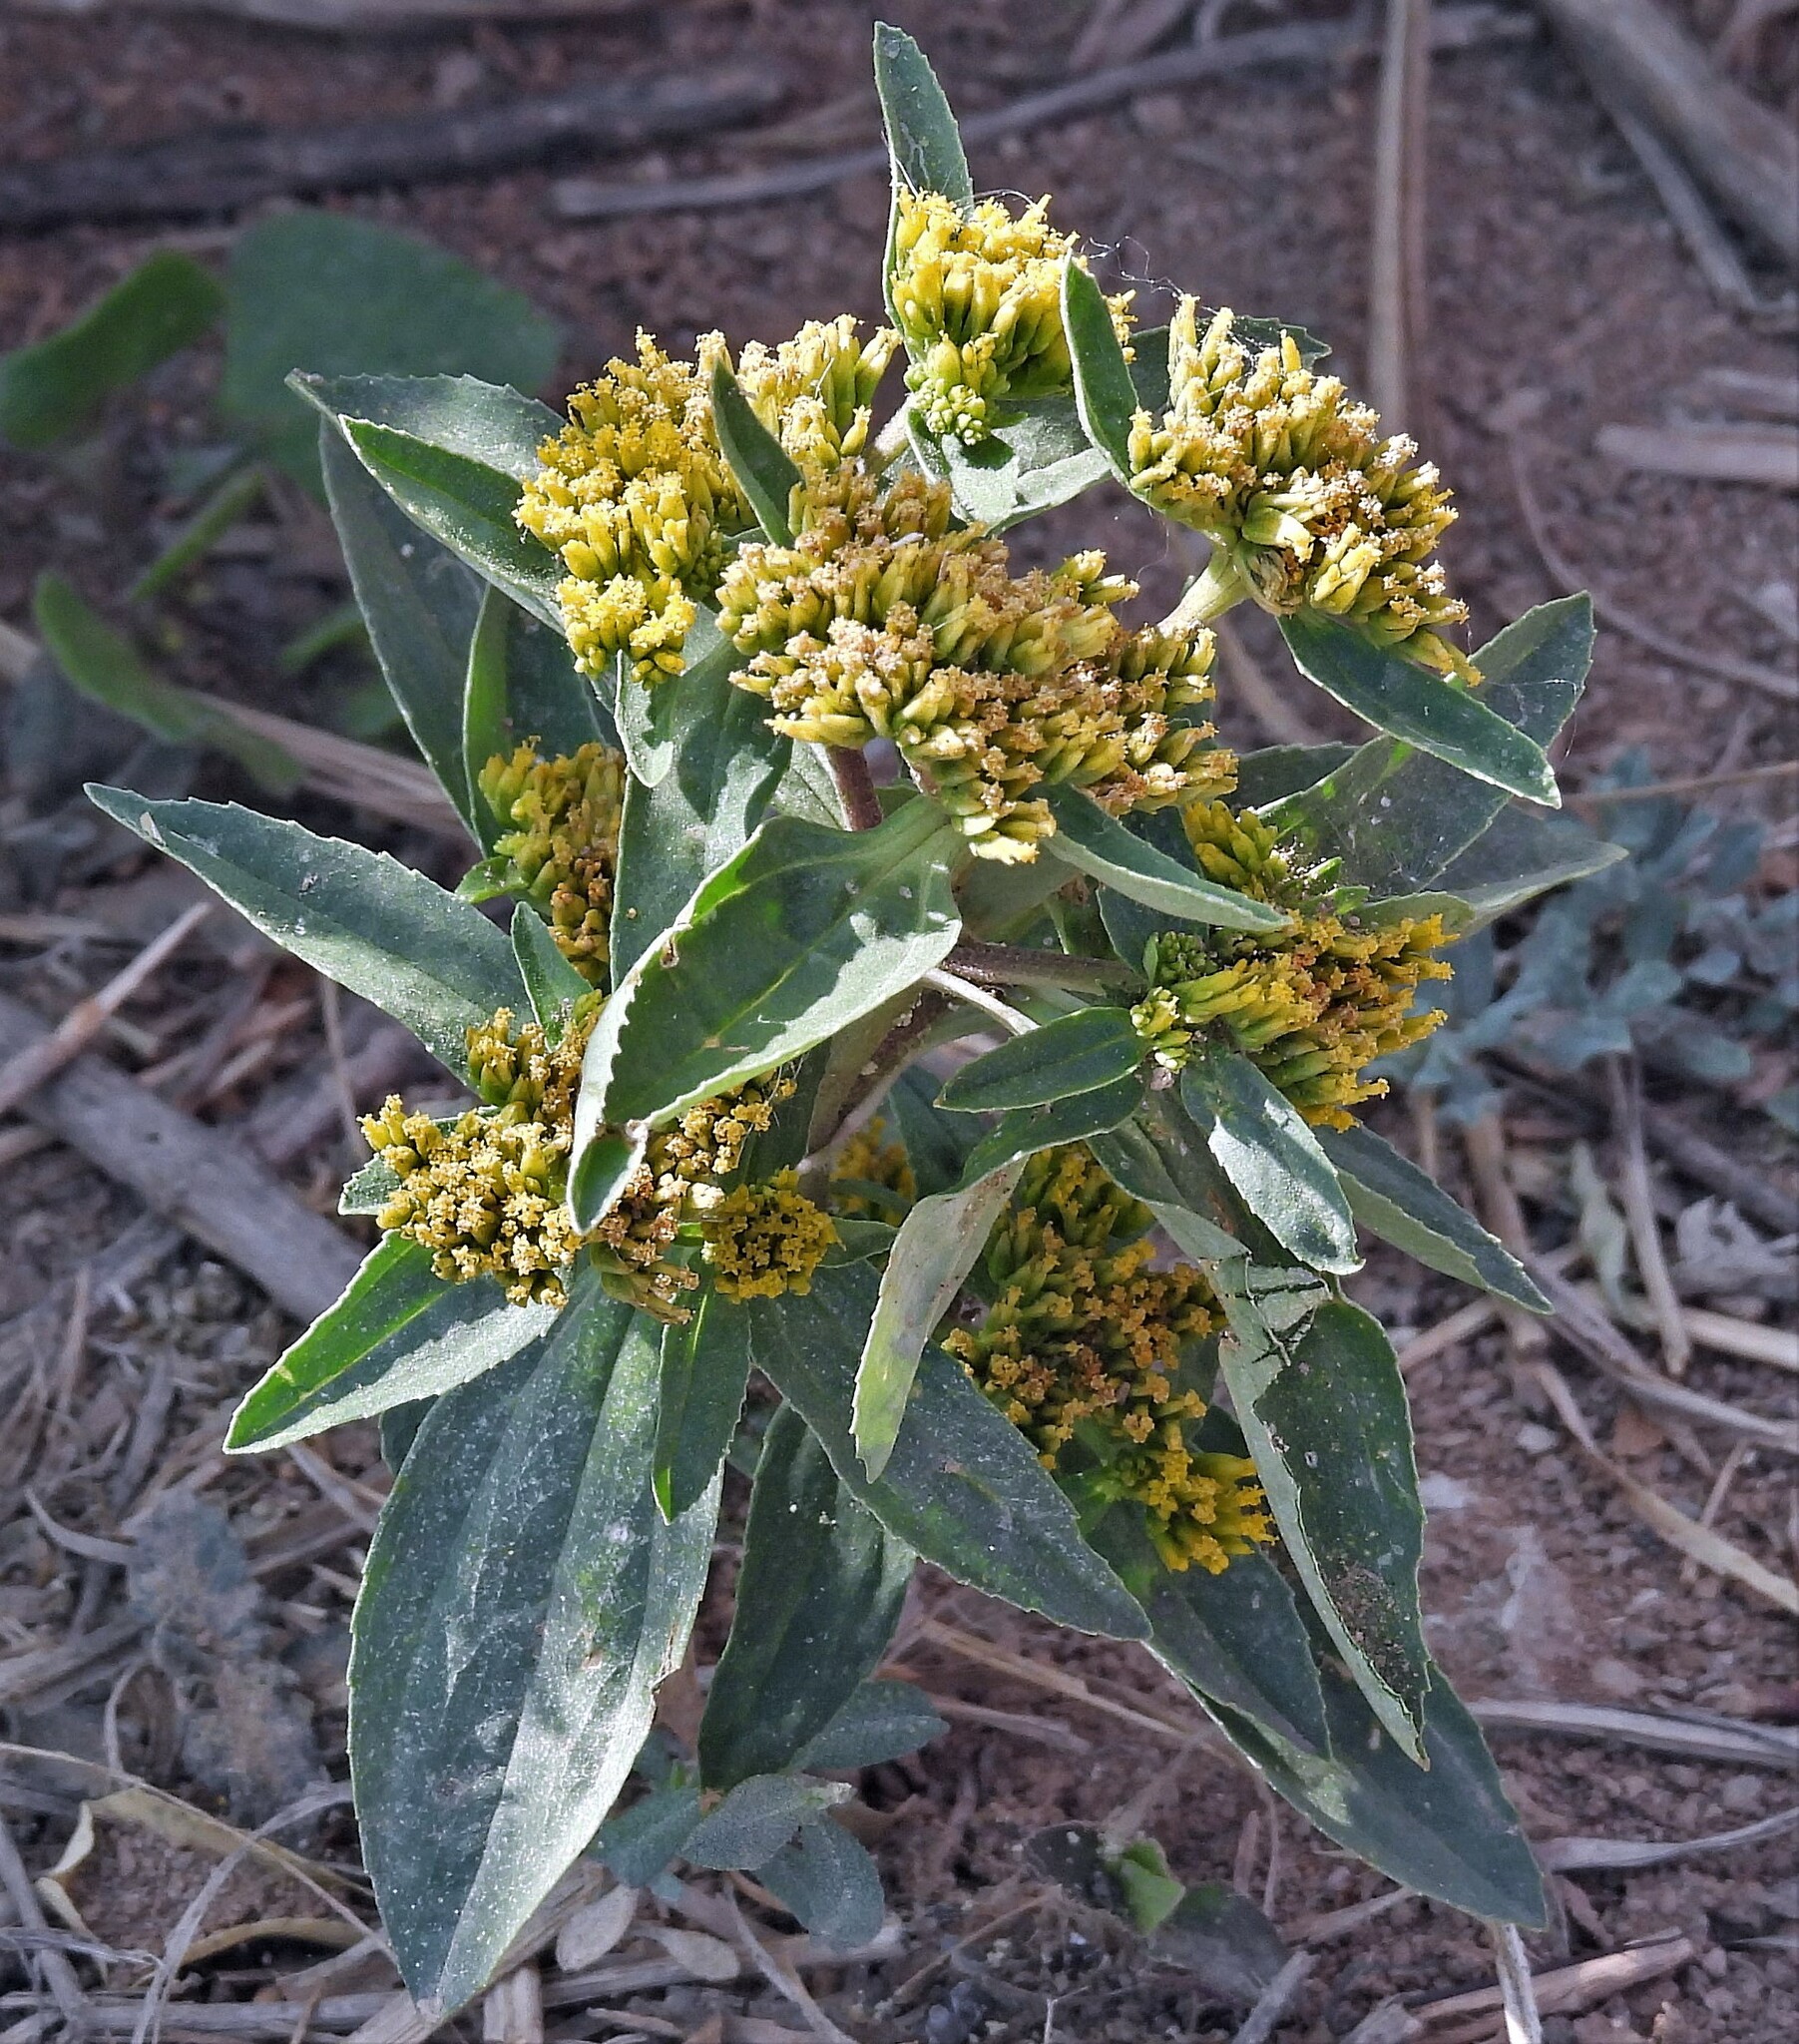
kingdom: Plantae
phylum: Tracheophyta
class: Magnoliopsida
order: Asterales
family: Asteraceae
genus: Flaveria
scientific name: Flaveria bidentis
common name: Coastal plain yellowtops
